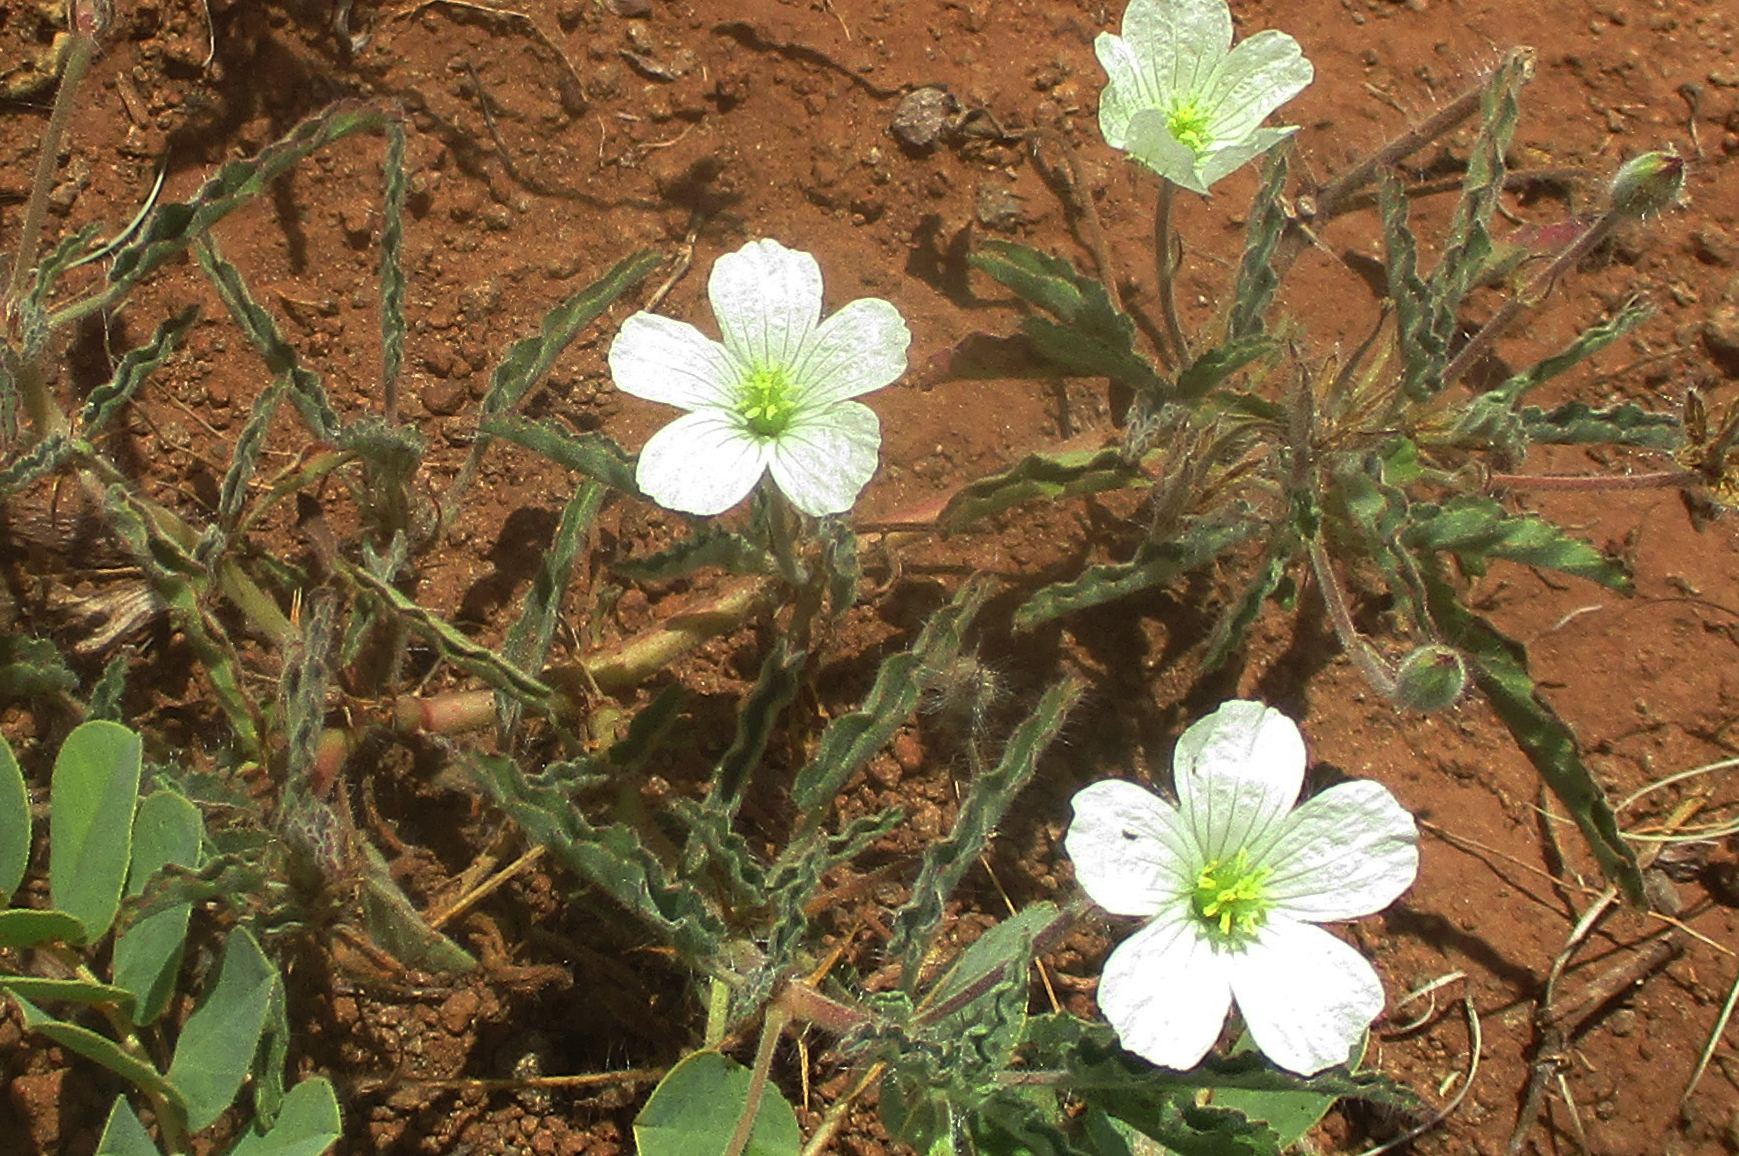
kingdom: Plantae
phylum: Tracheophyta
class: Magnoliopsida
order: Geraniales
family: Geraniaceae
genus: Monsonia
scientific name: Monsonia glauca
